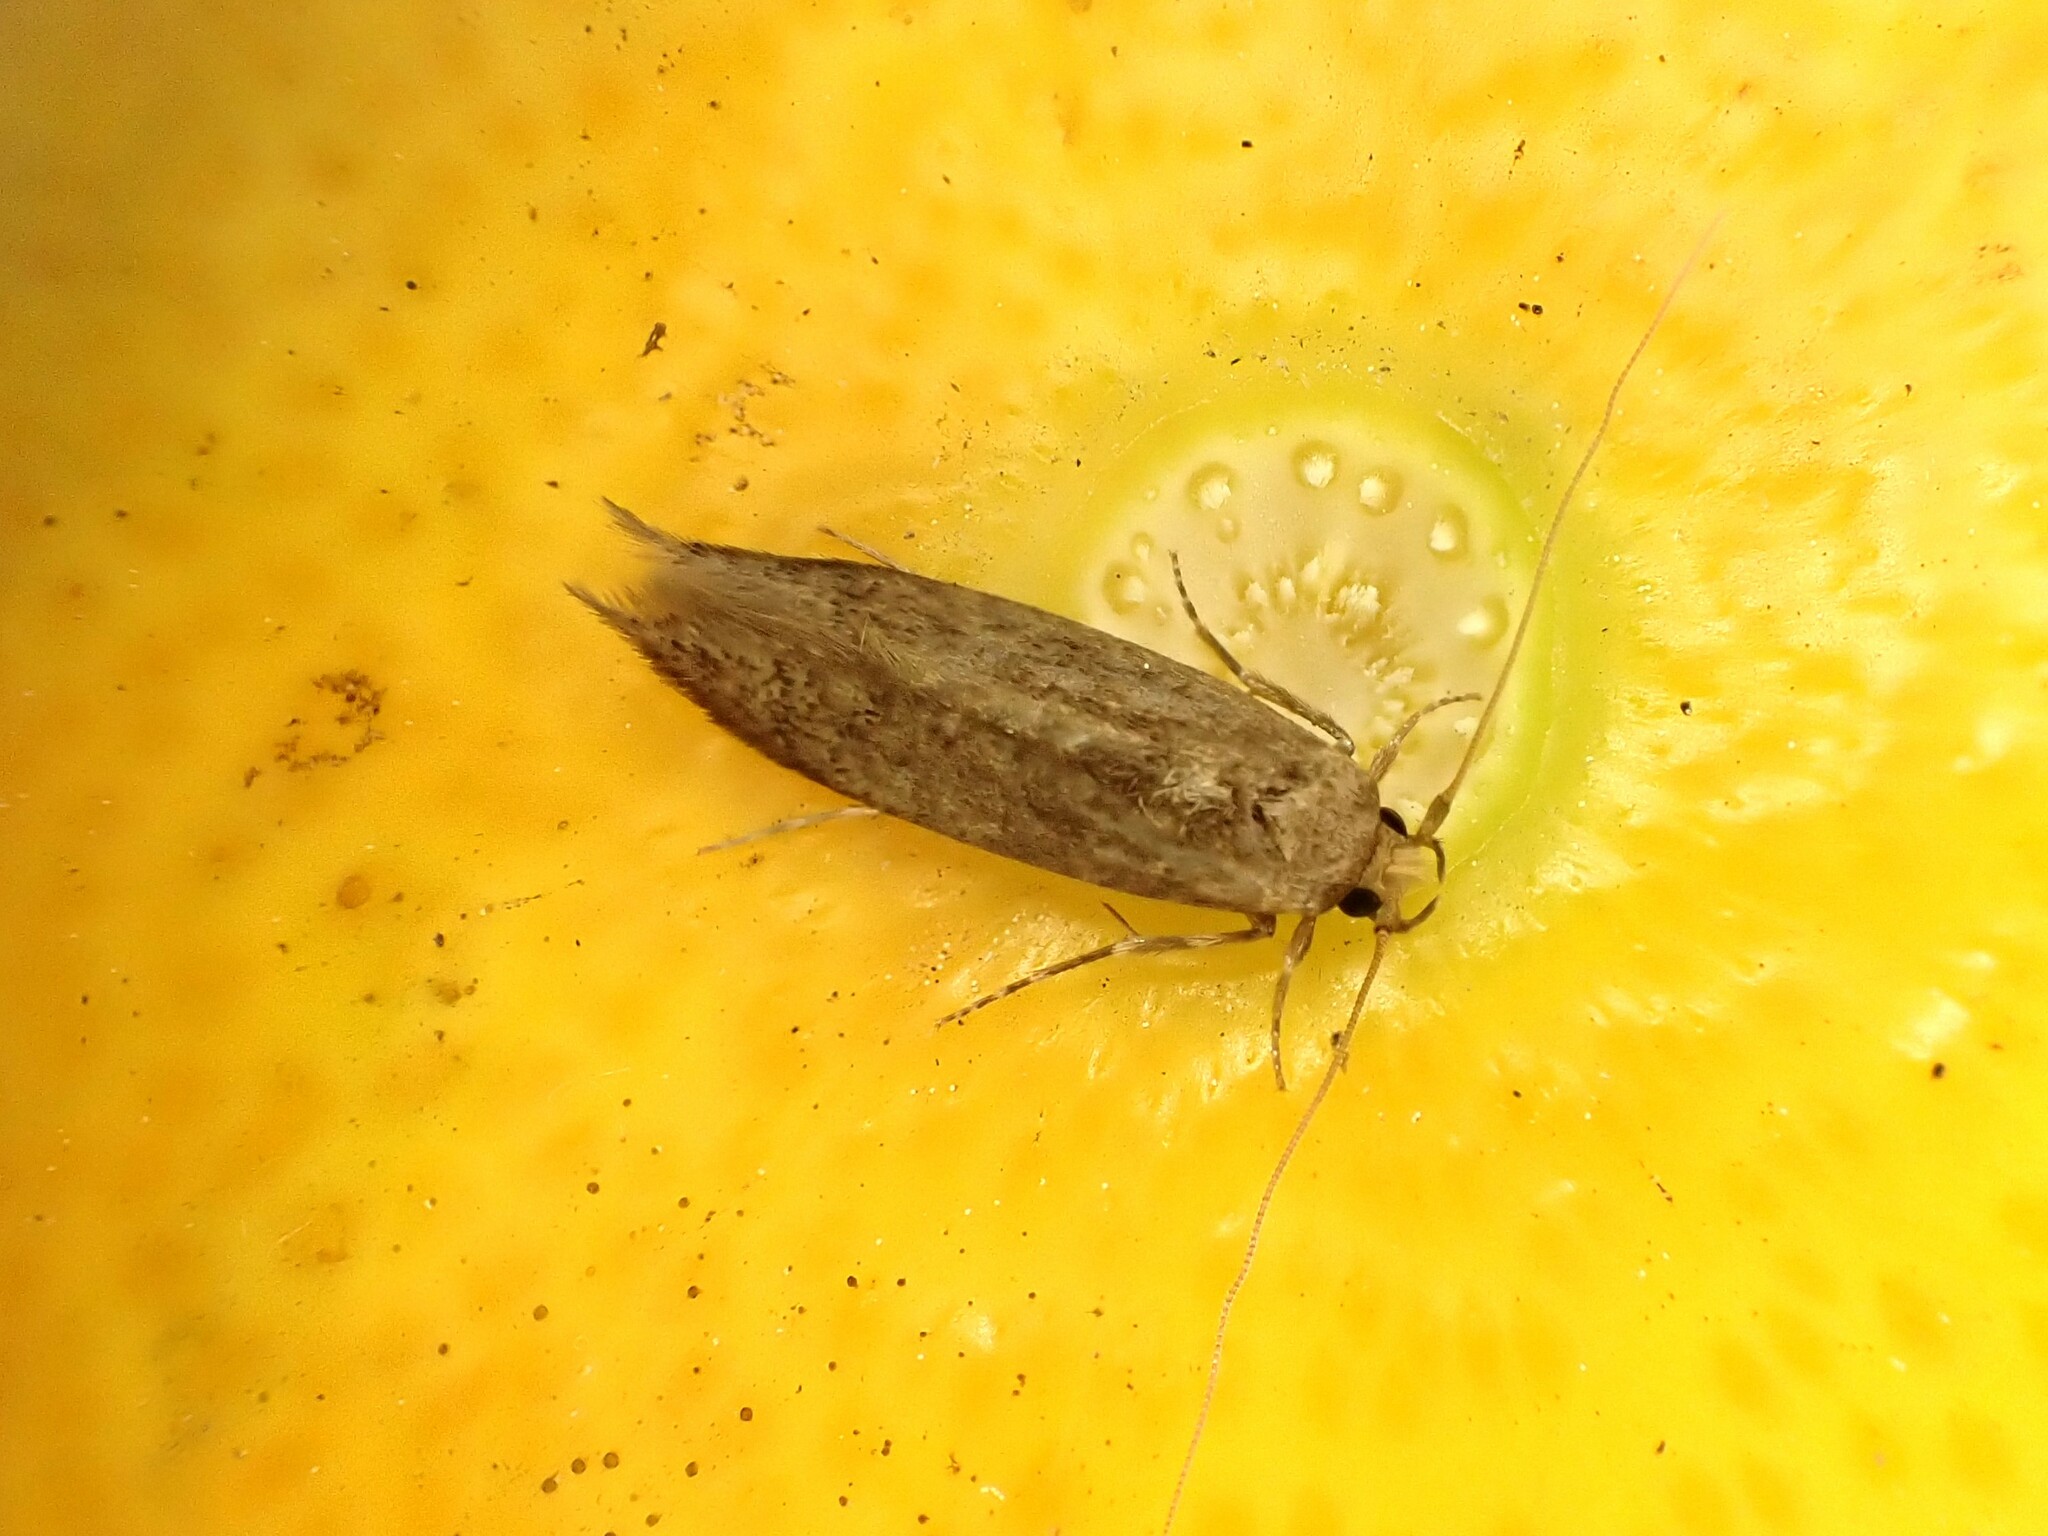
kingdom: Animalia
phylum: Arthropoda
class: Insecta
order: Lepidoptera
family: Tineidae
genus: Opogona
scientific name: Opogona omoscopa
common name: Moth
